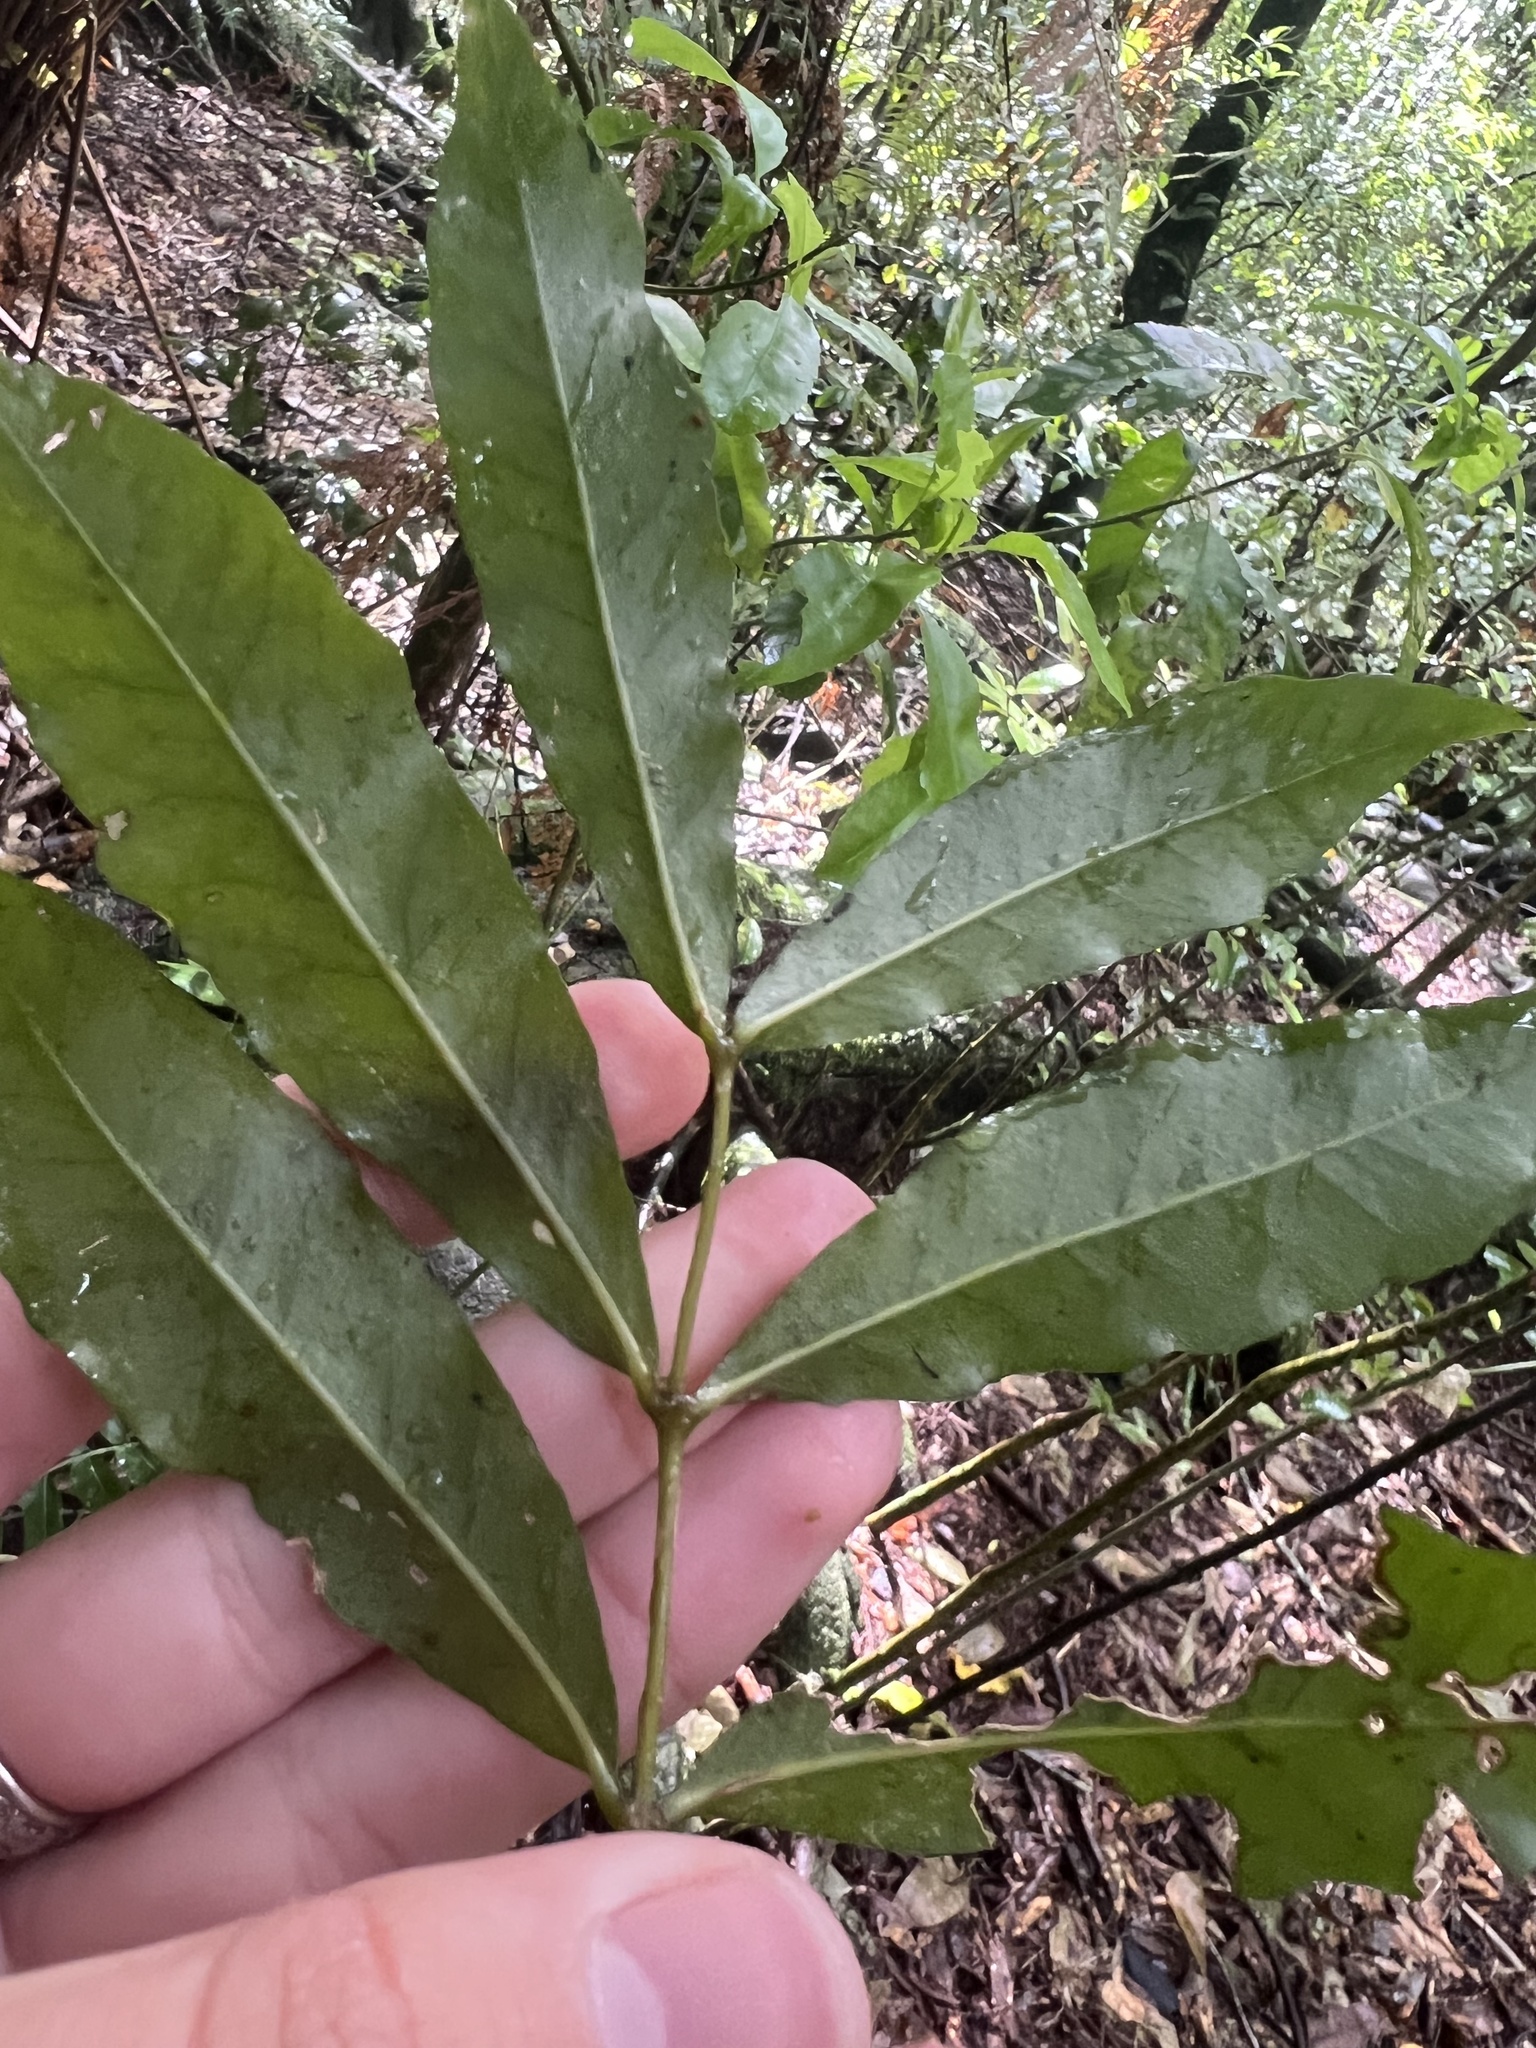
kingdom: Plantae
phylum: Tracheophyta
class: Magnoliopsida
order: Santalales
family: Nanodeaceae
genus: Mida
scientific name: Mida salicifolia
